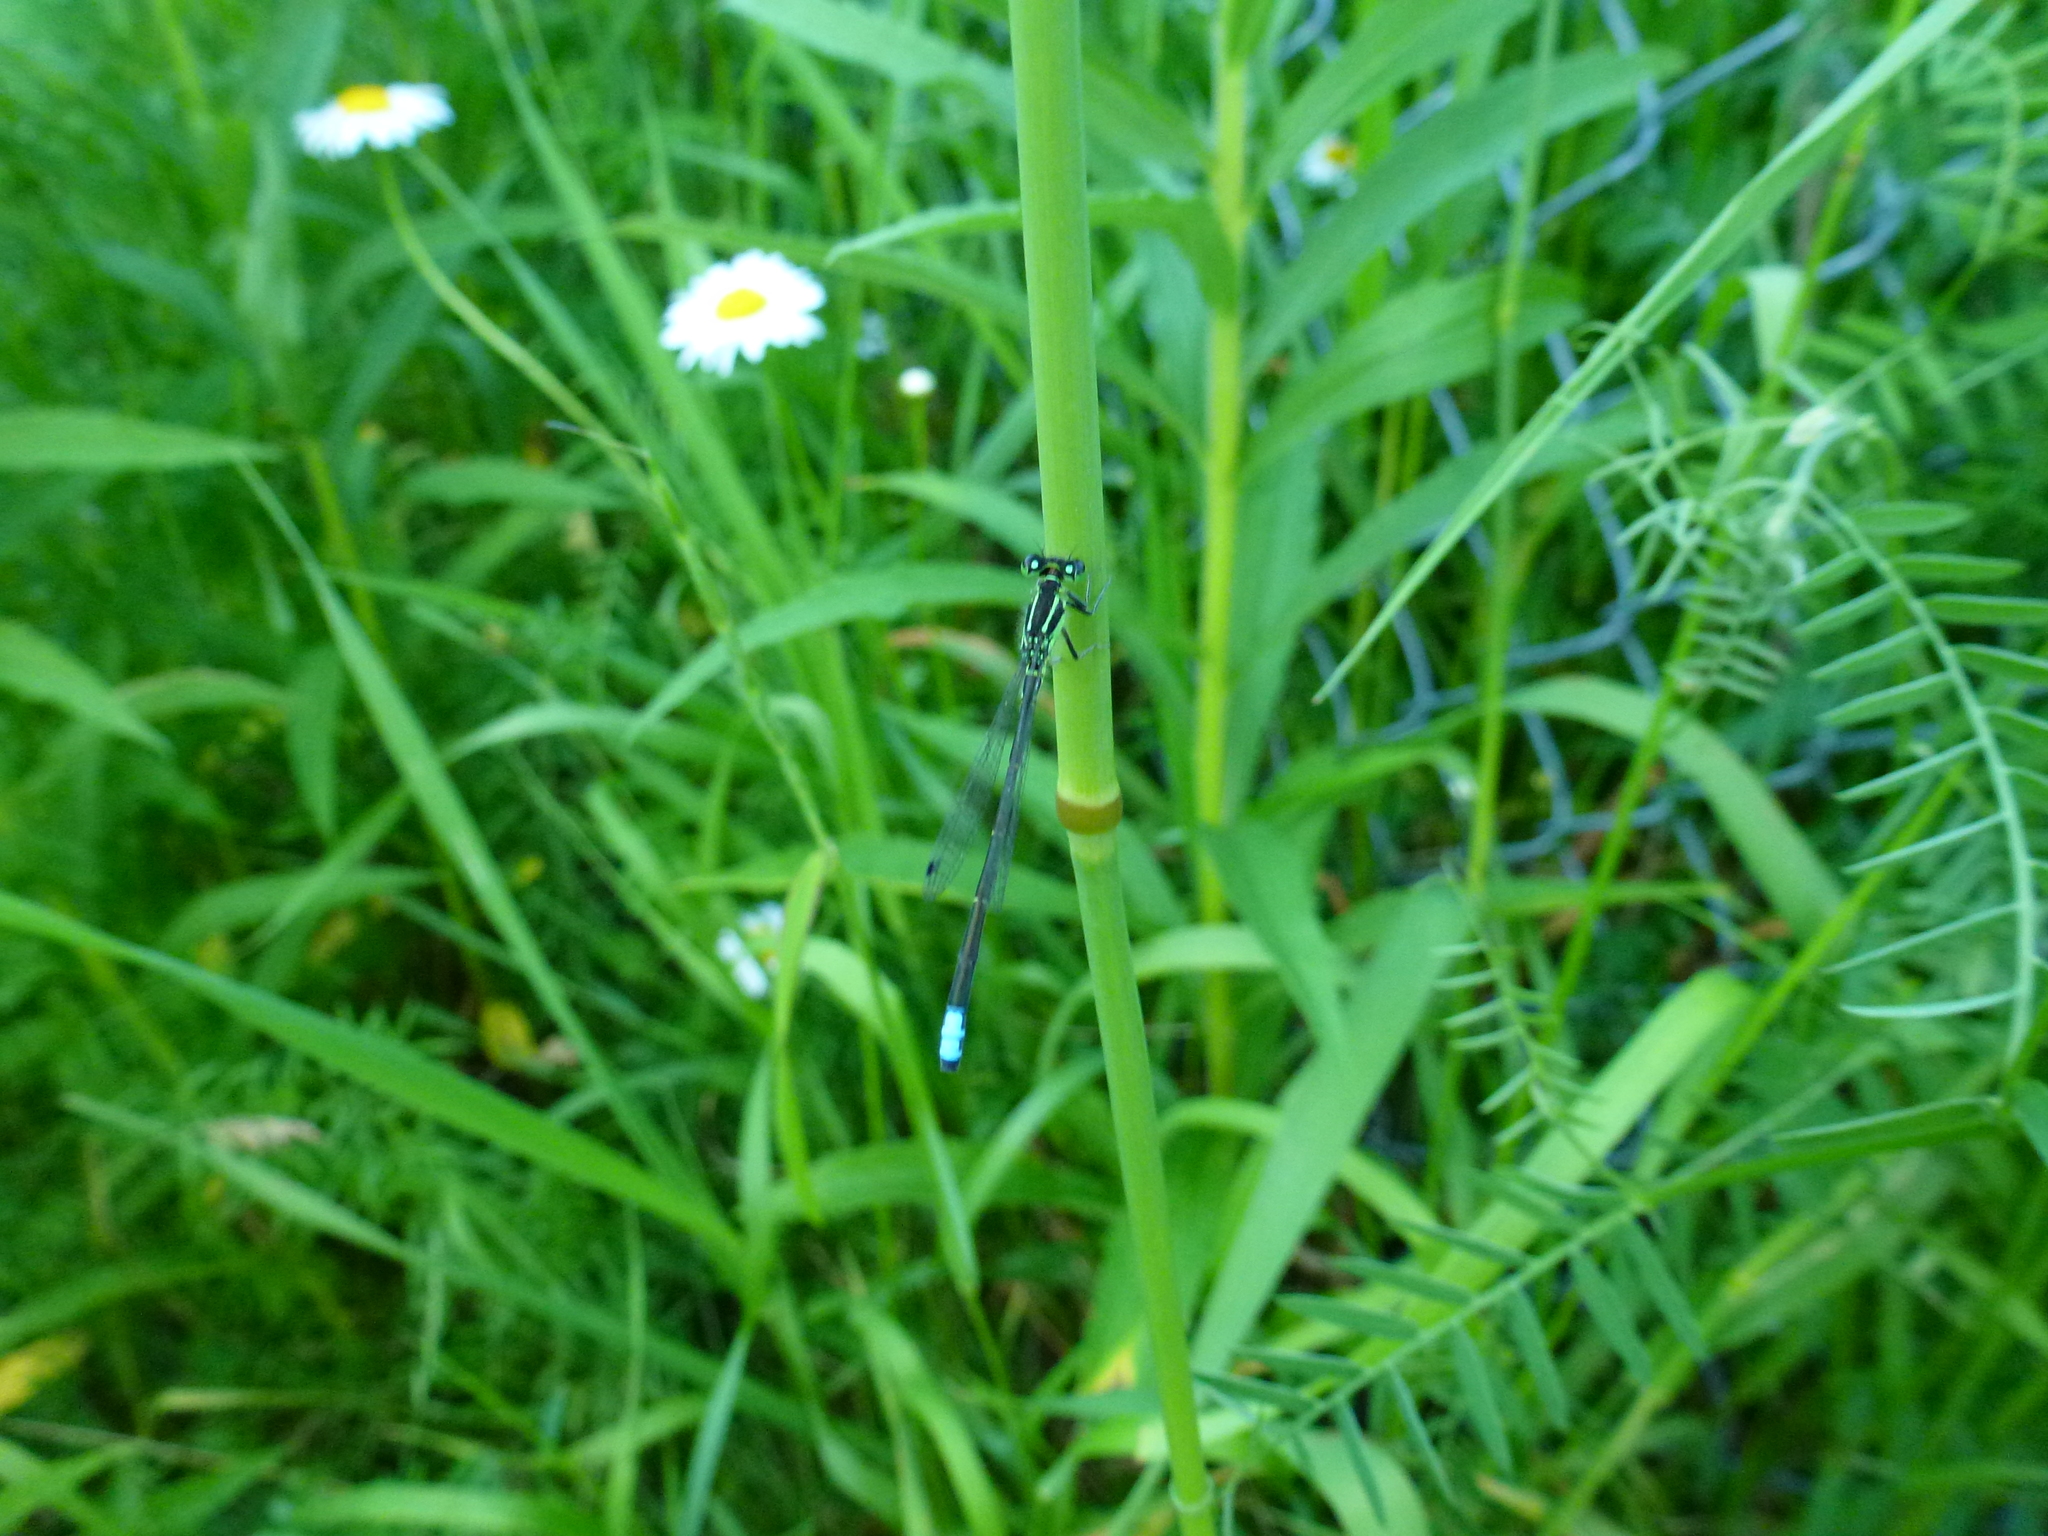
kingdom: Animalia
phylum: Arthropoda
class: Insecta
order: Odonata
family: Coenagrionidae
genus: Ischnura
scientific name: Ischnura verticalis
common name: Eastern forktail
